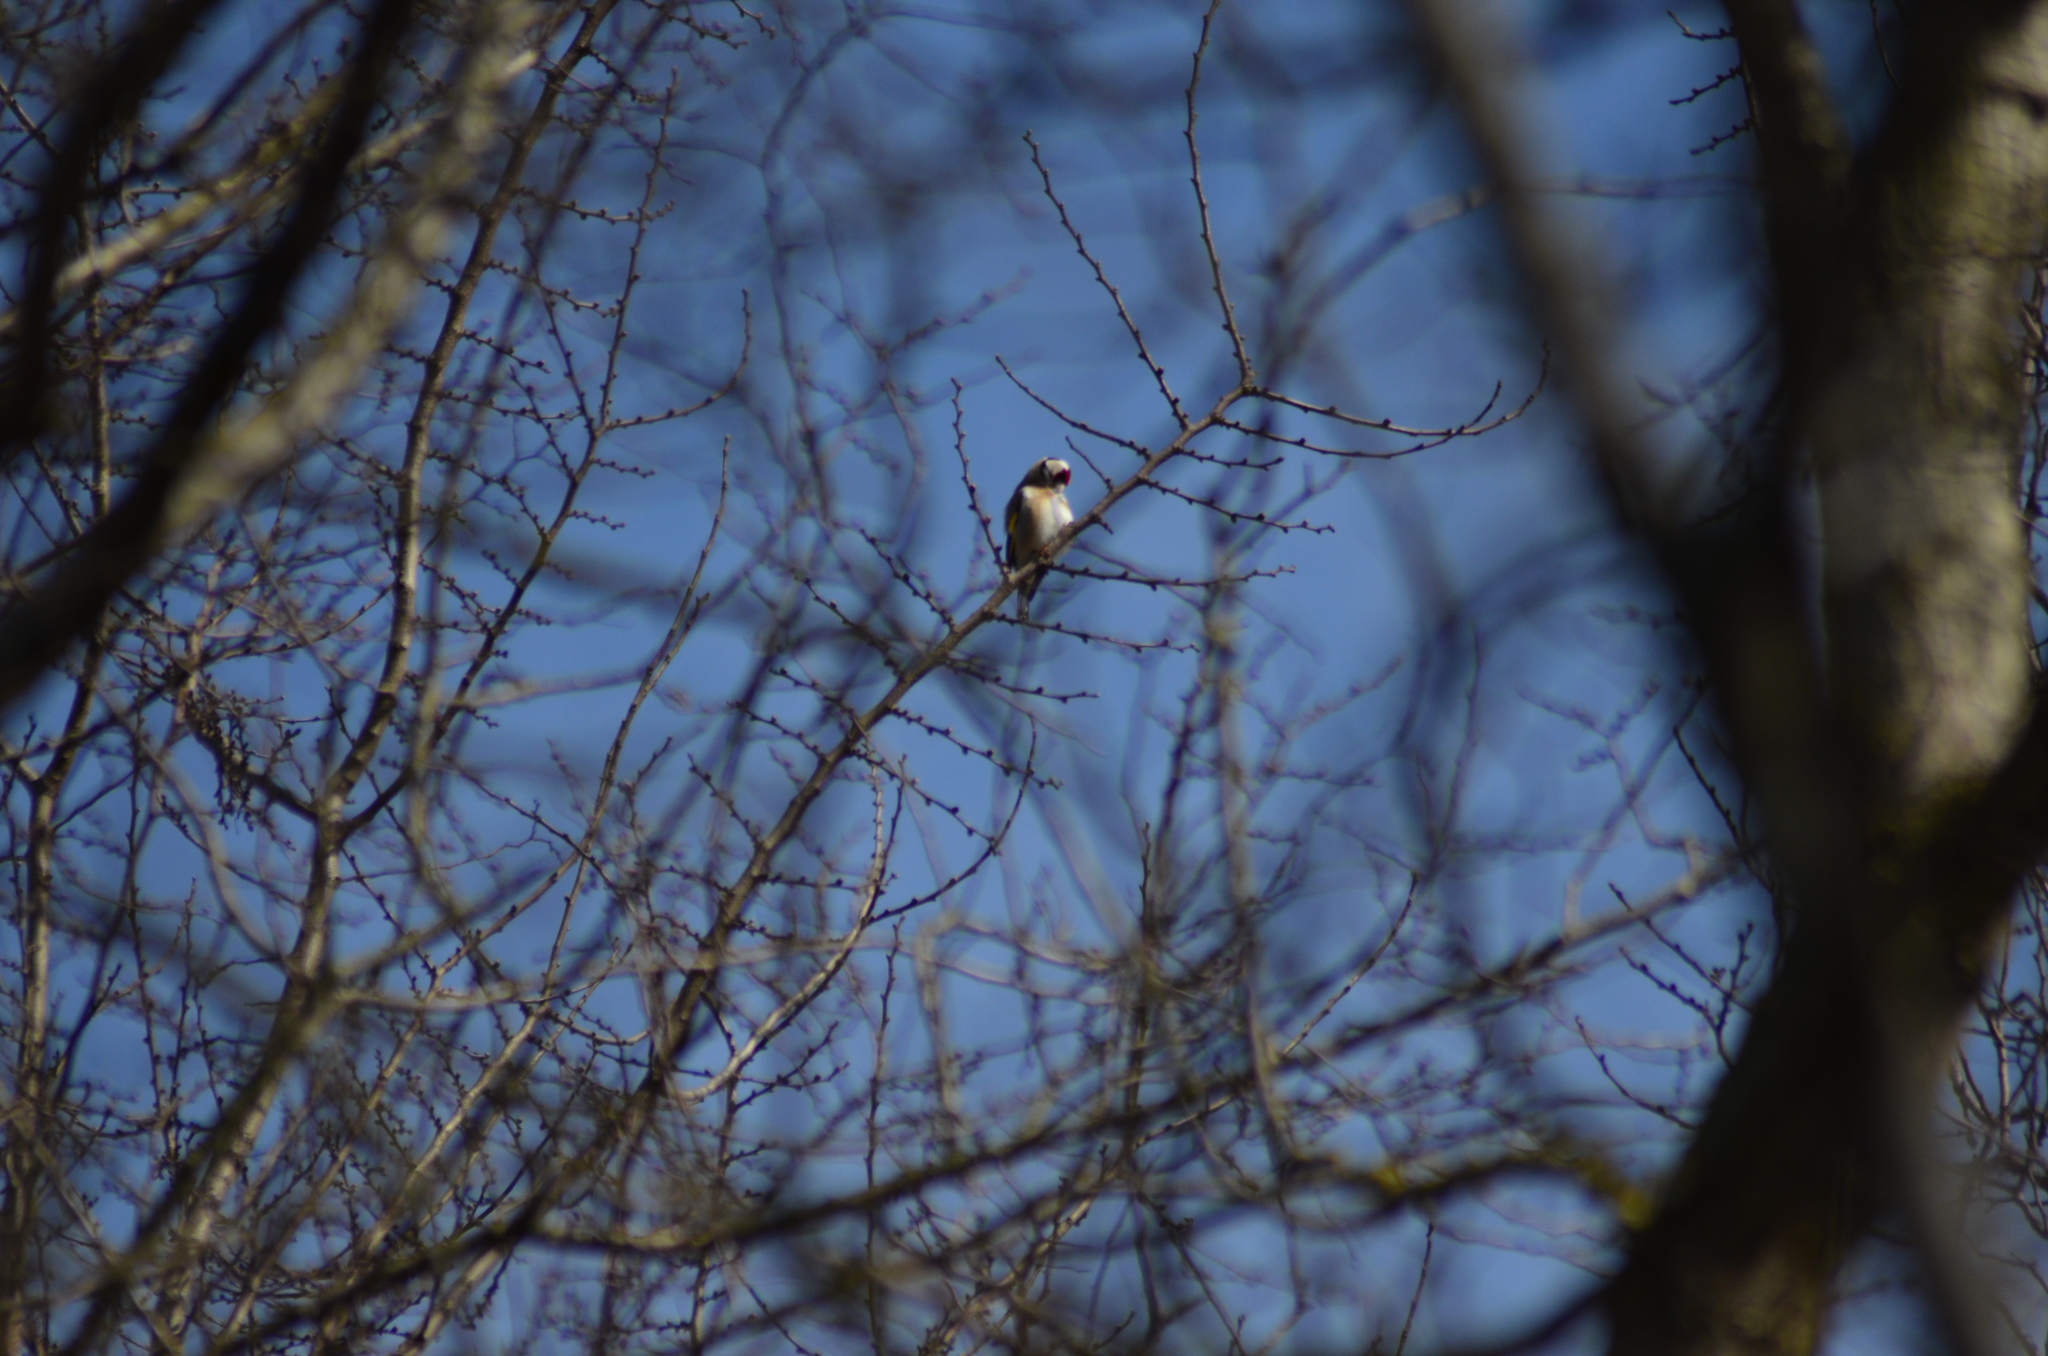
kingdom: Animalia
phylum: Chordata
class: Aves
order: Passeriformes
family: Fringillidae
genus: Carduelis
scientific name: Carduelis carduelis
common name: European goldfinch
